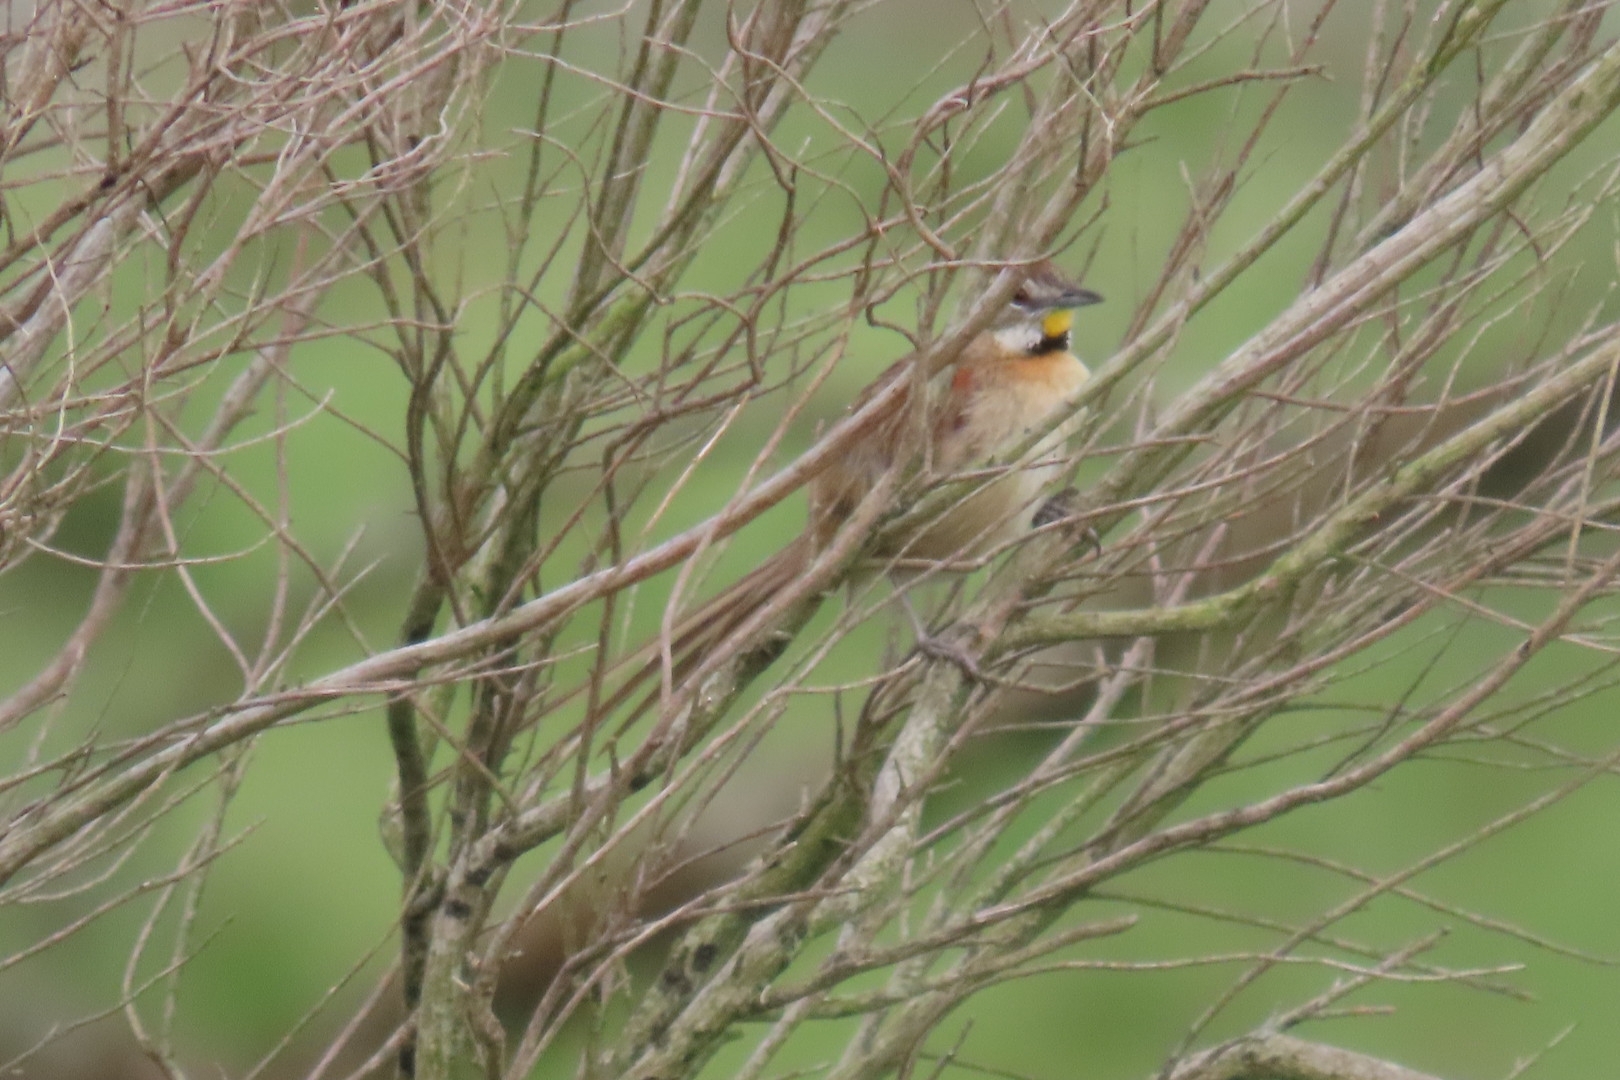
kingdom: Animalia
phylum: Chordata
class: Aves
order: Passeriformes
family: Furnariidae
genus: Schoeniophylax
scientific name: Schoeniophylax phryganophilus
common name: Chotoy spinetail
